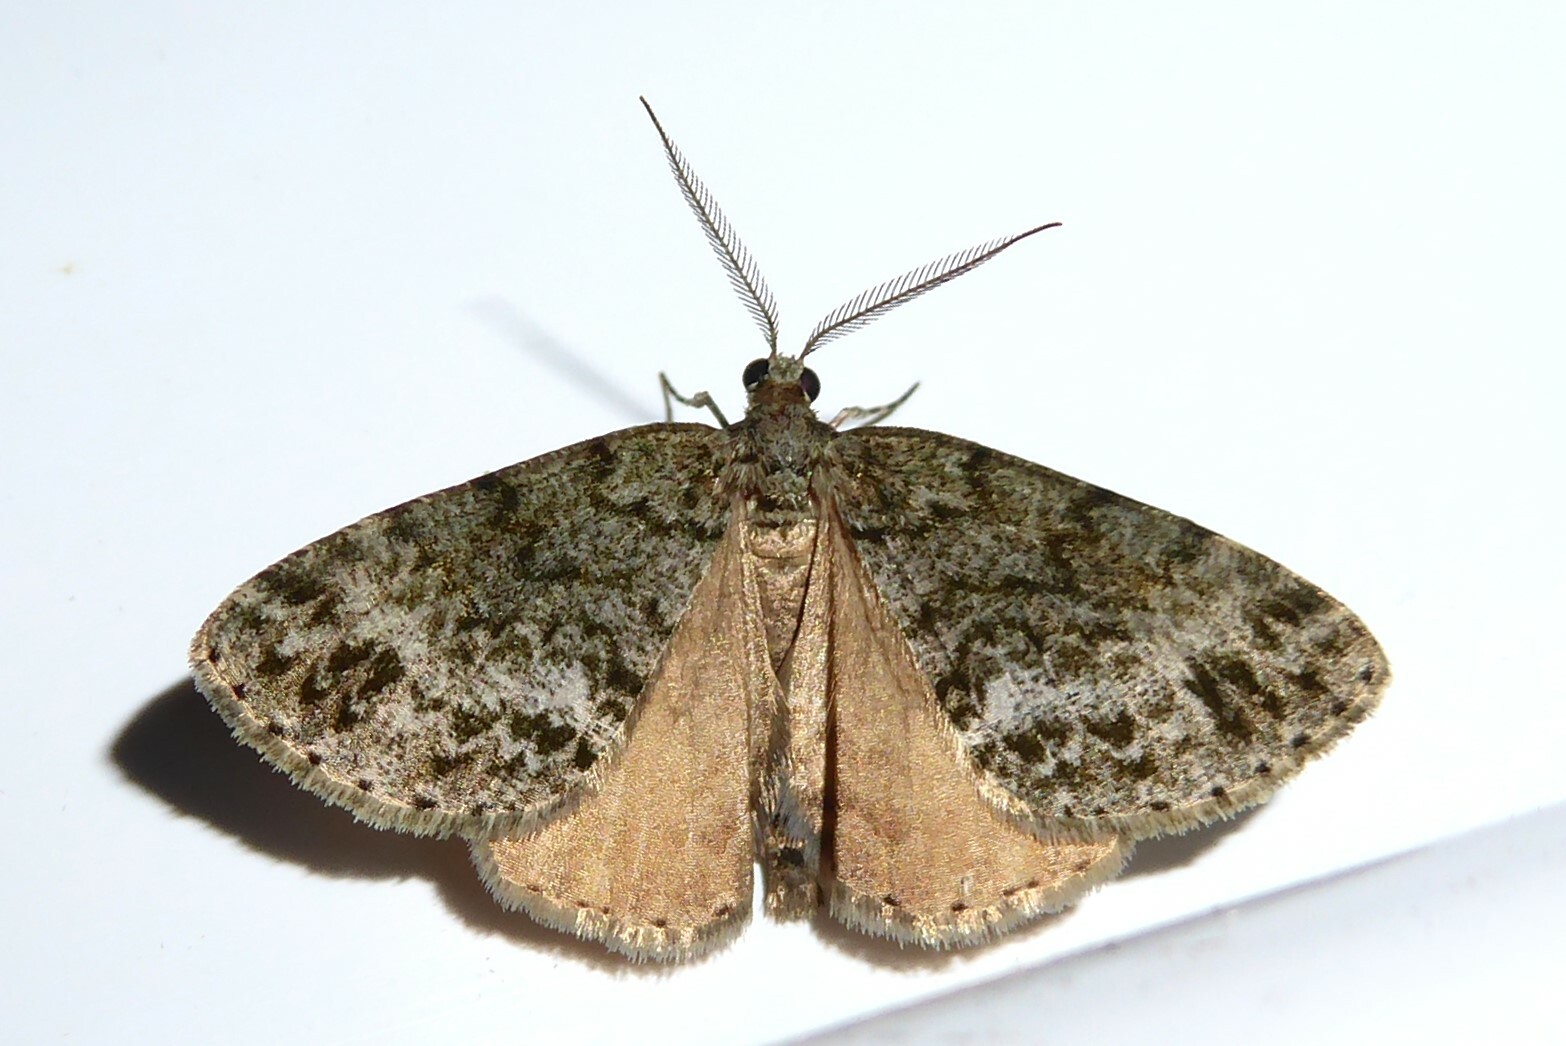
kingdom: Animalia
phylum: Arthropoda
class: Insecta
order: Lepidoptera
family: Geometridae
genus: Pseudocoremia
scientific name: Pseudocoremia indistincta
